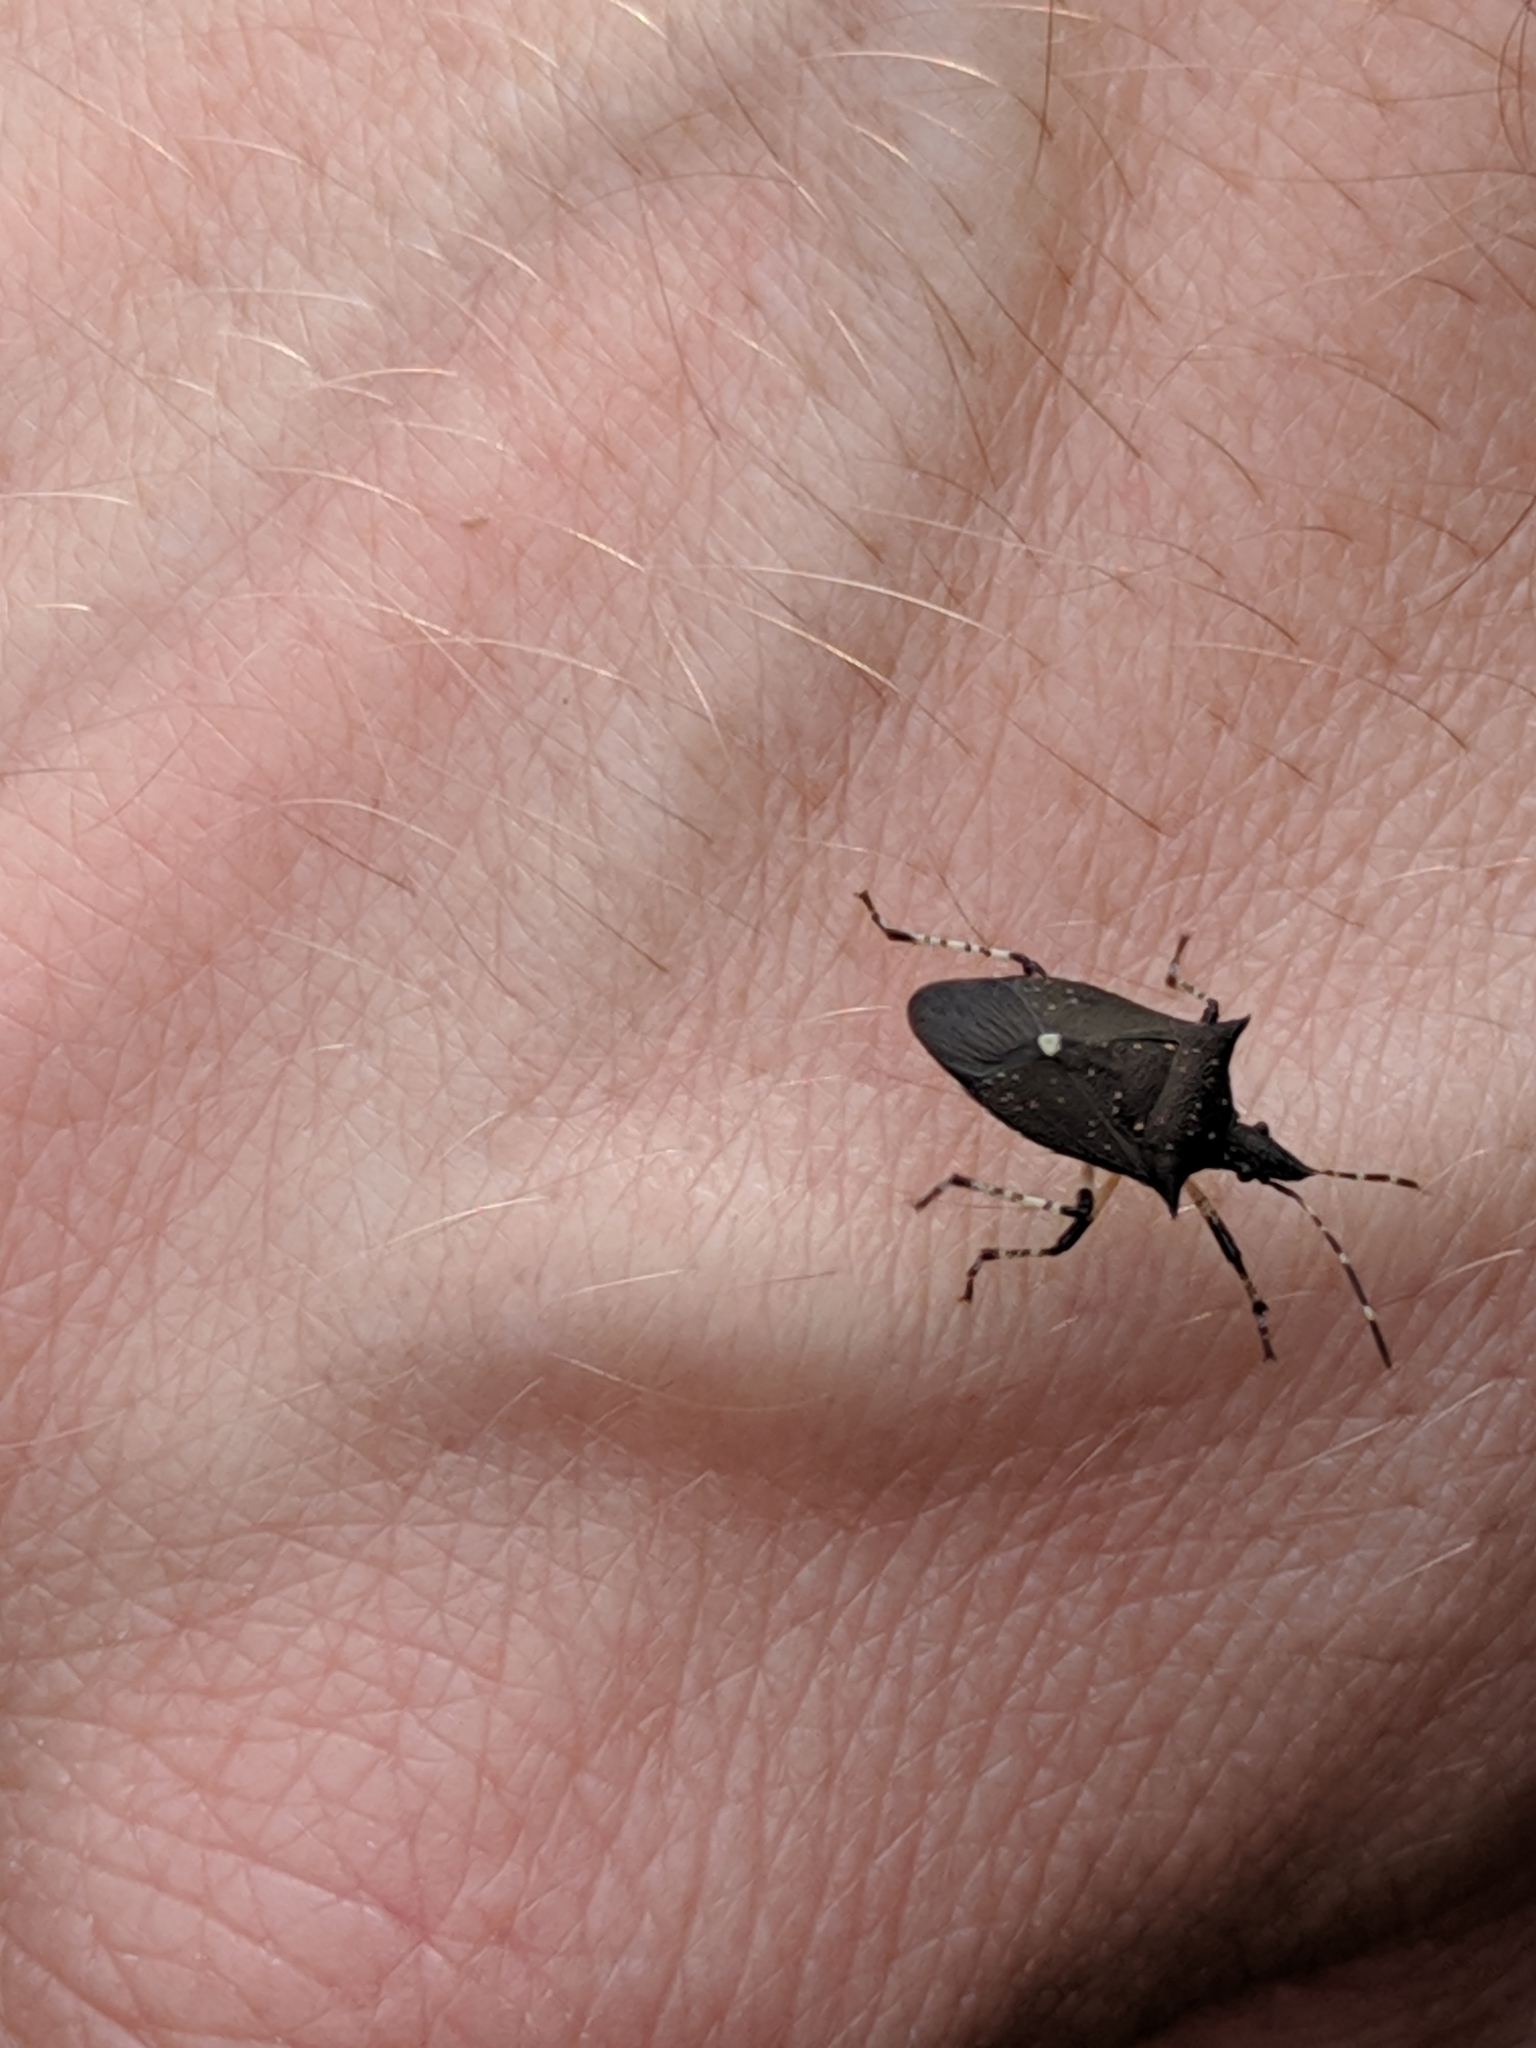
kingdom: Animalia
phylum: Arthropoda
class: Insecta
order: Hemiptera
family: Pentatomidae
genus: Proxys
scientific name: Proxys punctulatus
